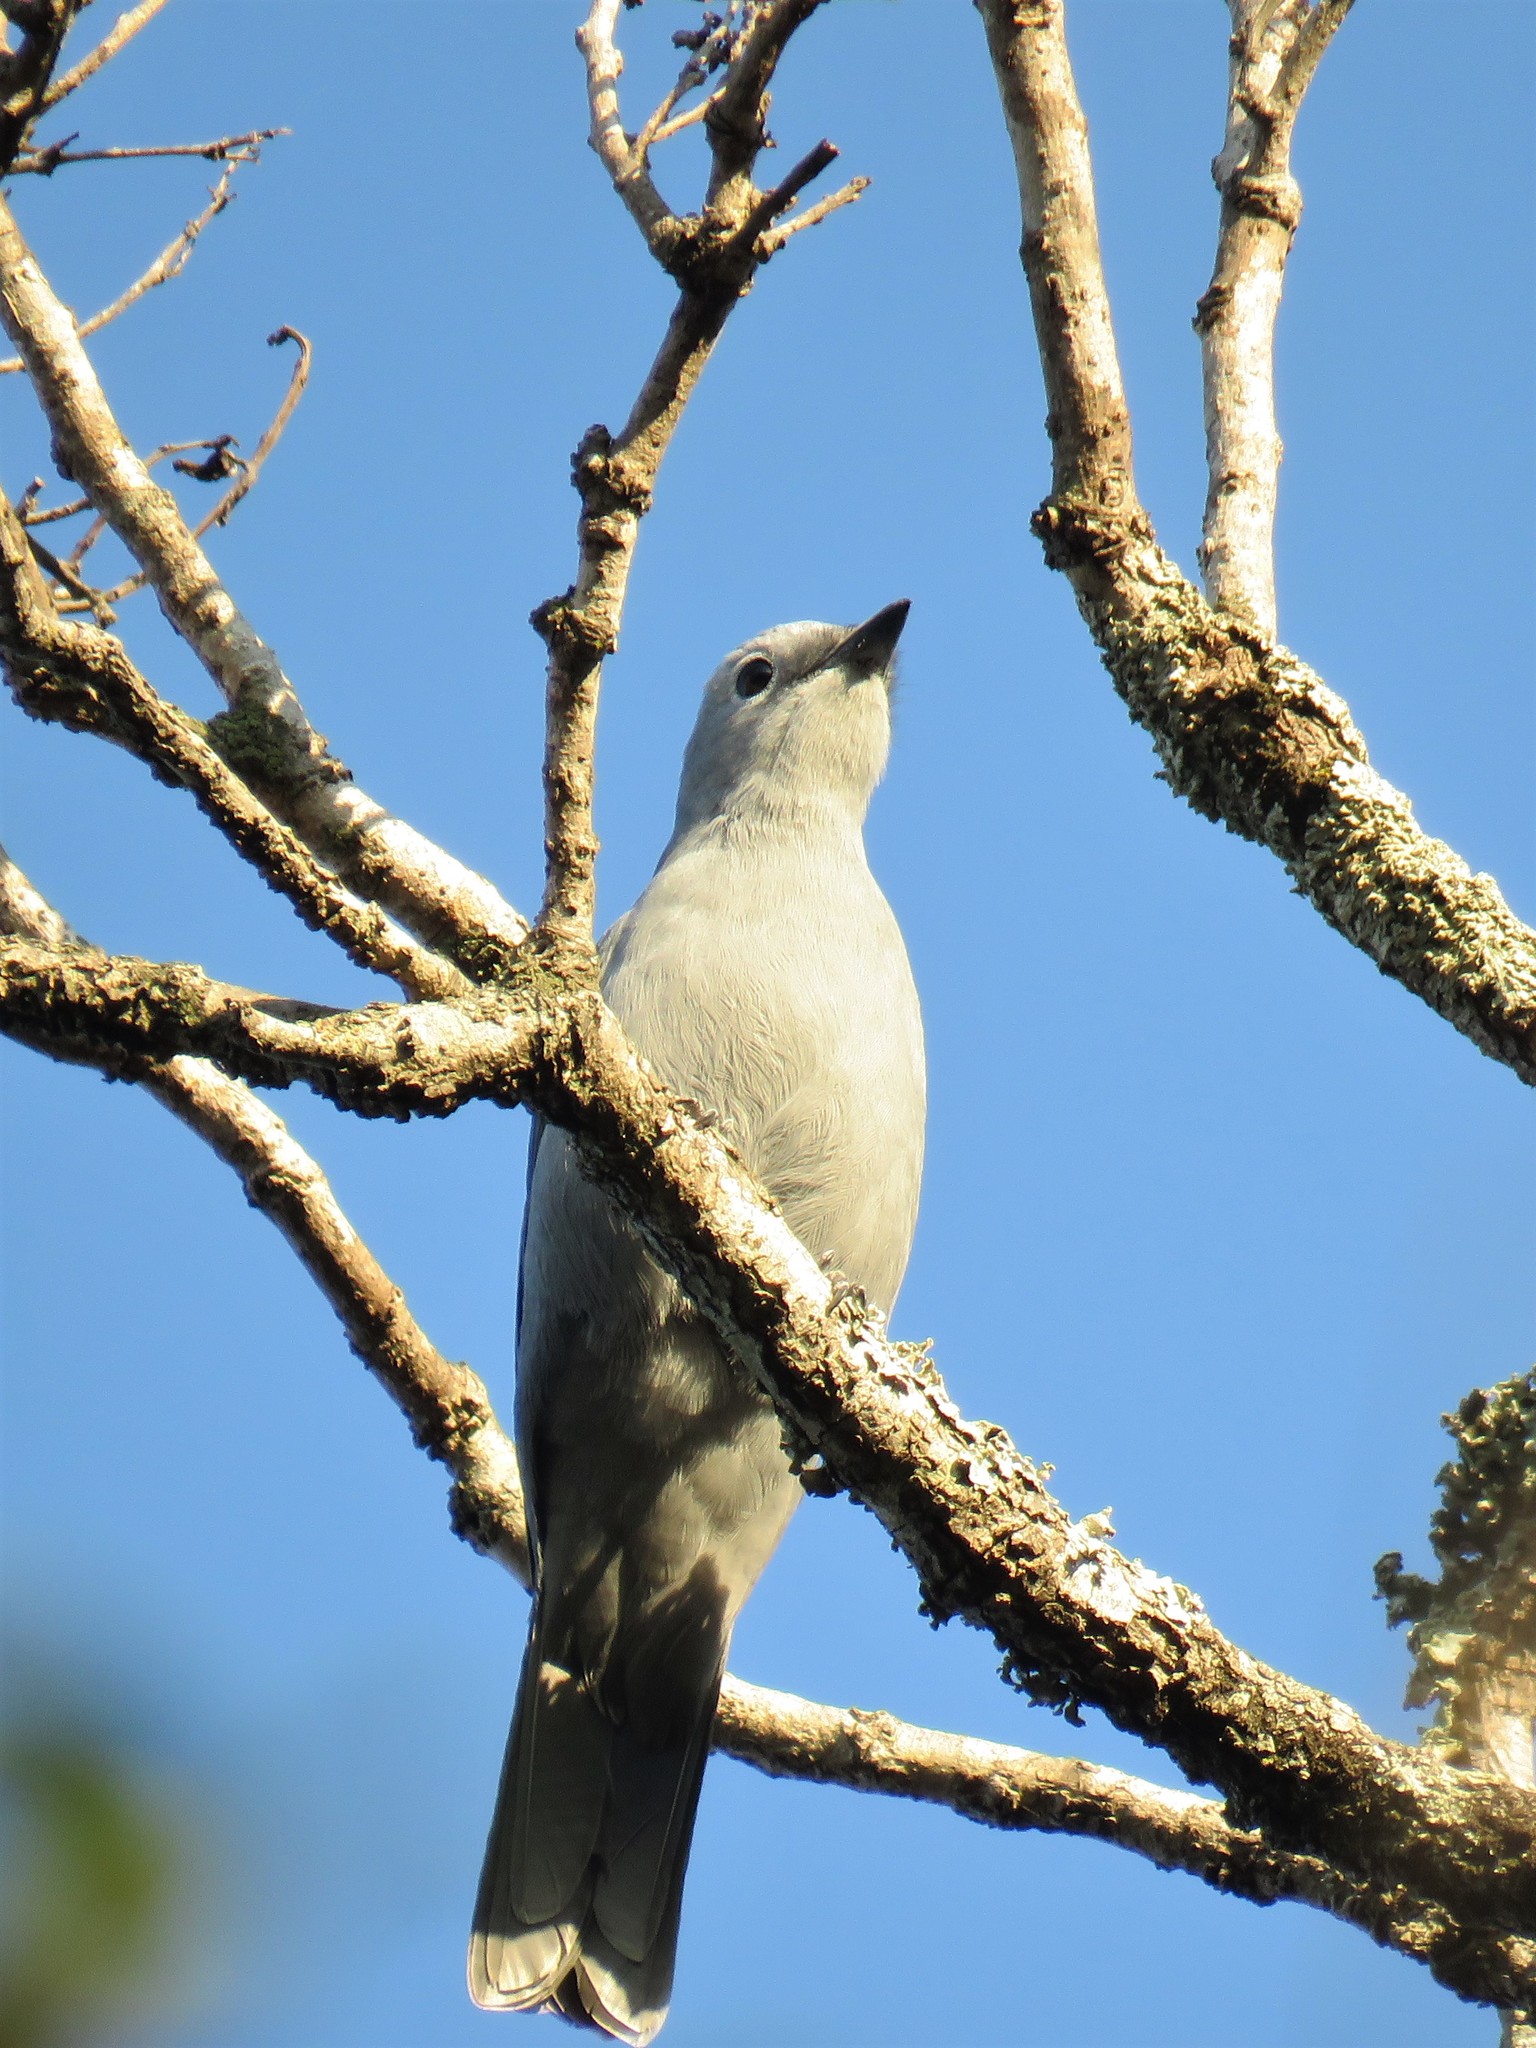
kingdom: Animalia
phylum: Chordata
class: Aves
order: Passeriformes
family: Campephagidae
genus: Coracina
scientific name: Coracina caesia
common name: Grey cuckooshrike
